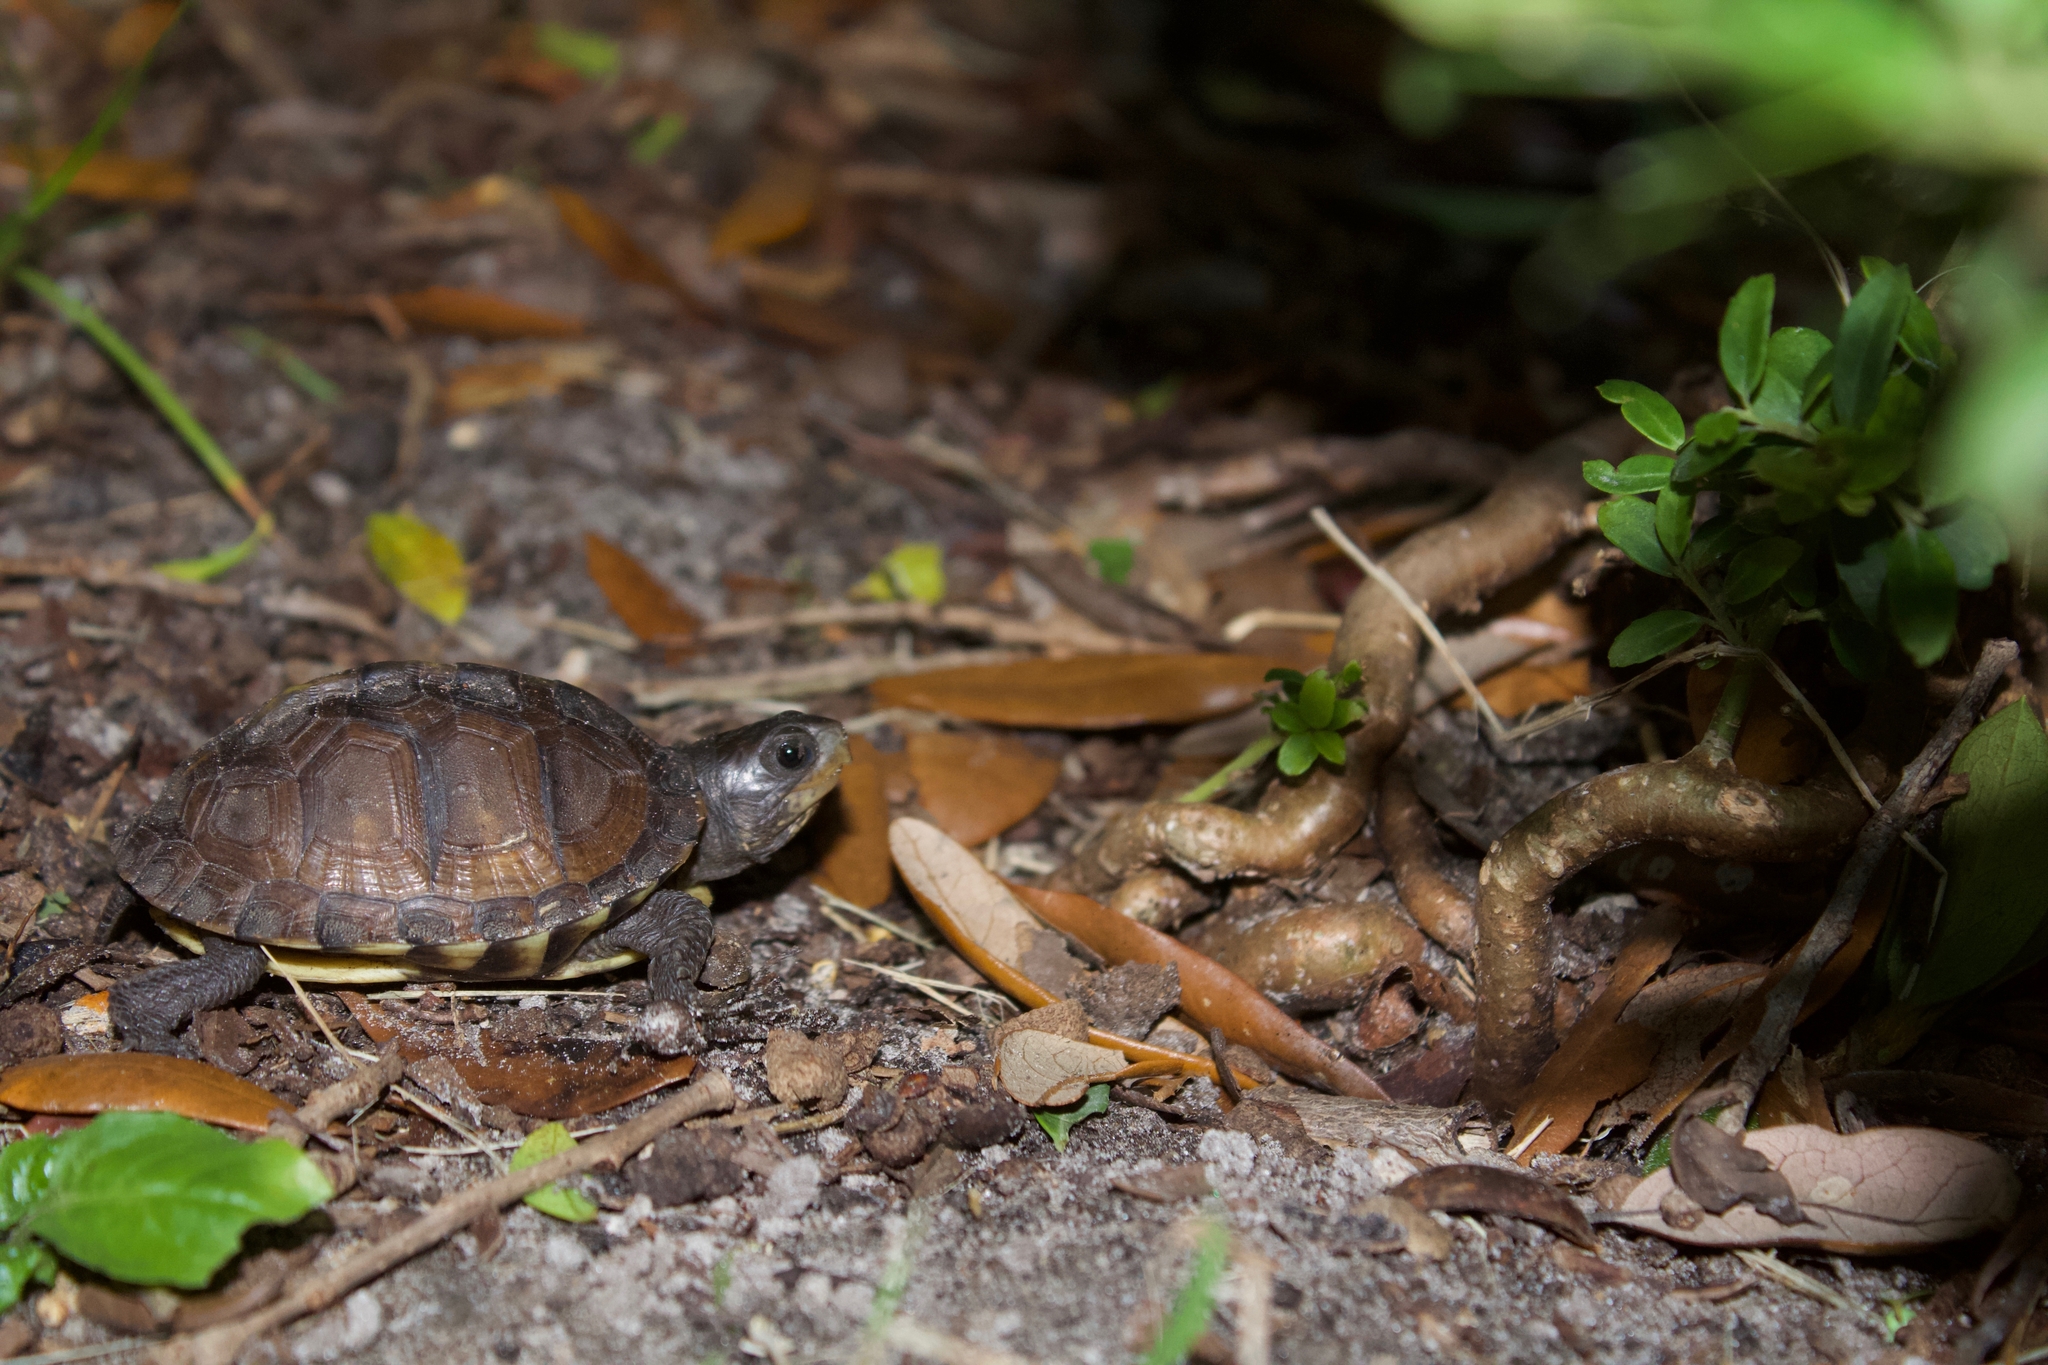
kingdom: Animalia
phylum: Chordata
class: Testudines
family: Emydidae
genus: Terrapene
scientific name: Terrapene carolina
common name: Common box turtle
